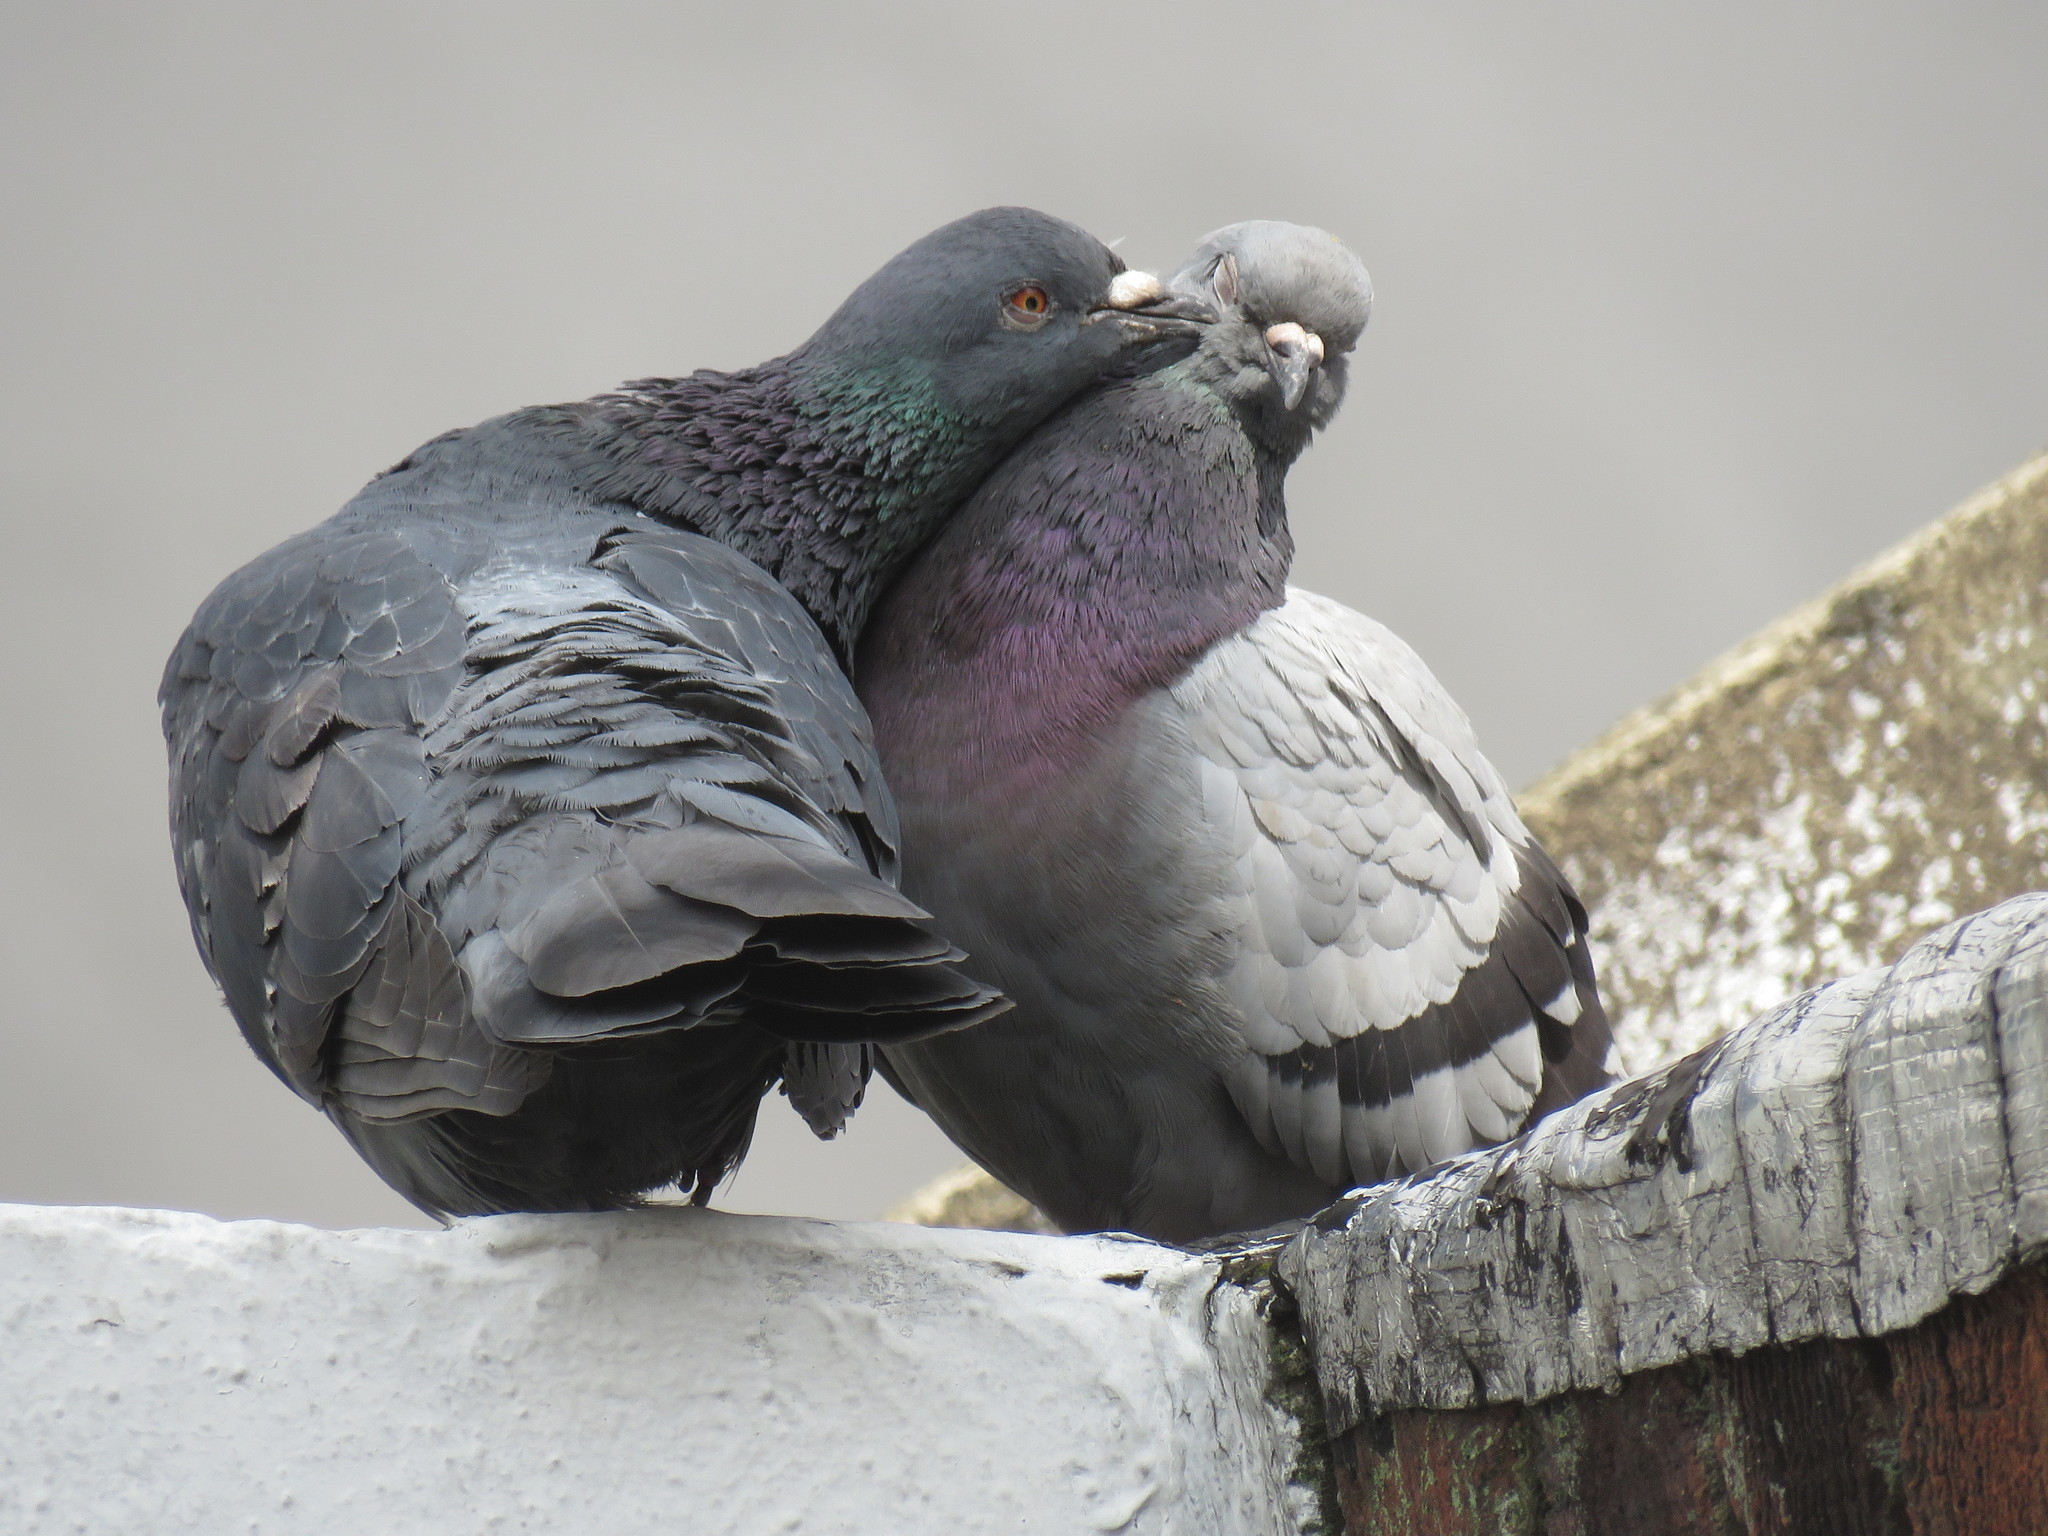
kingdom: Animalia
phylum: Chordata
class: Aves
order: Columbiformes
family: Columbidae
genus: Columba
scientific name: Columba livia
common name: Rock pigeon
